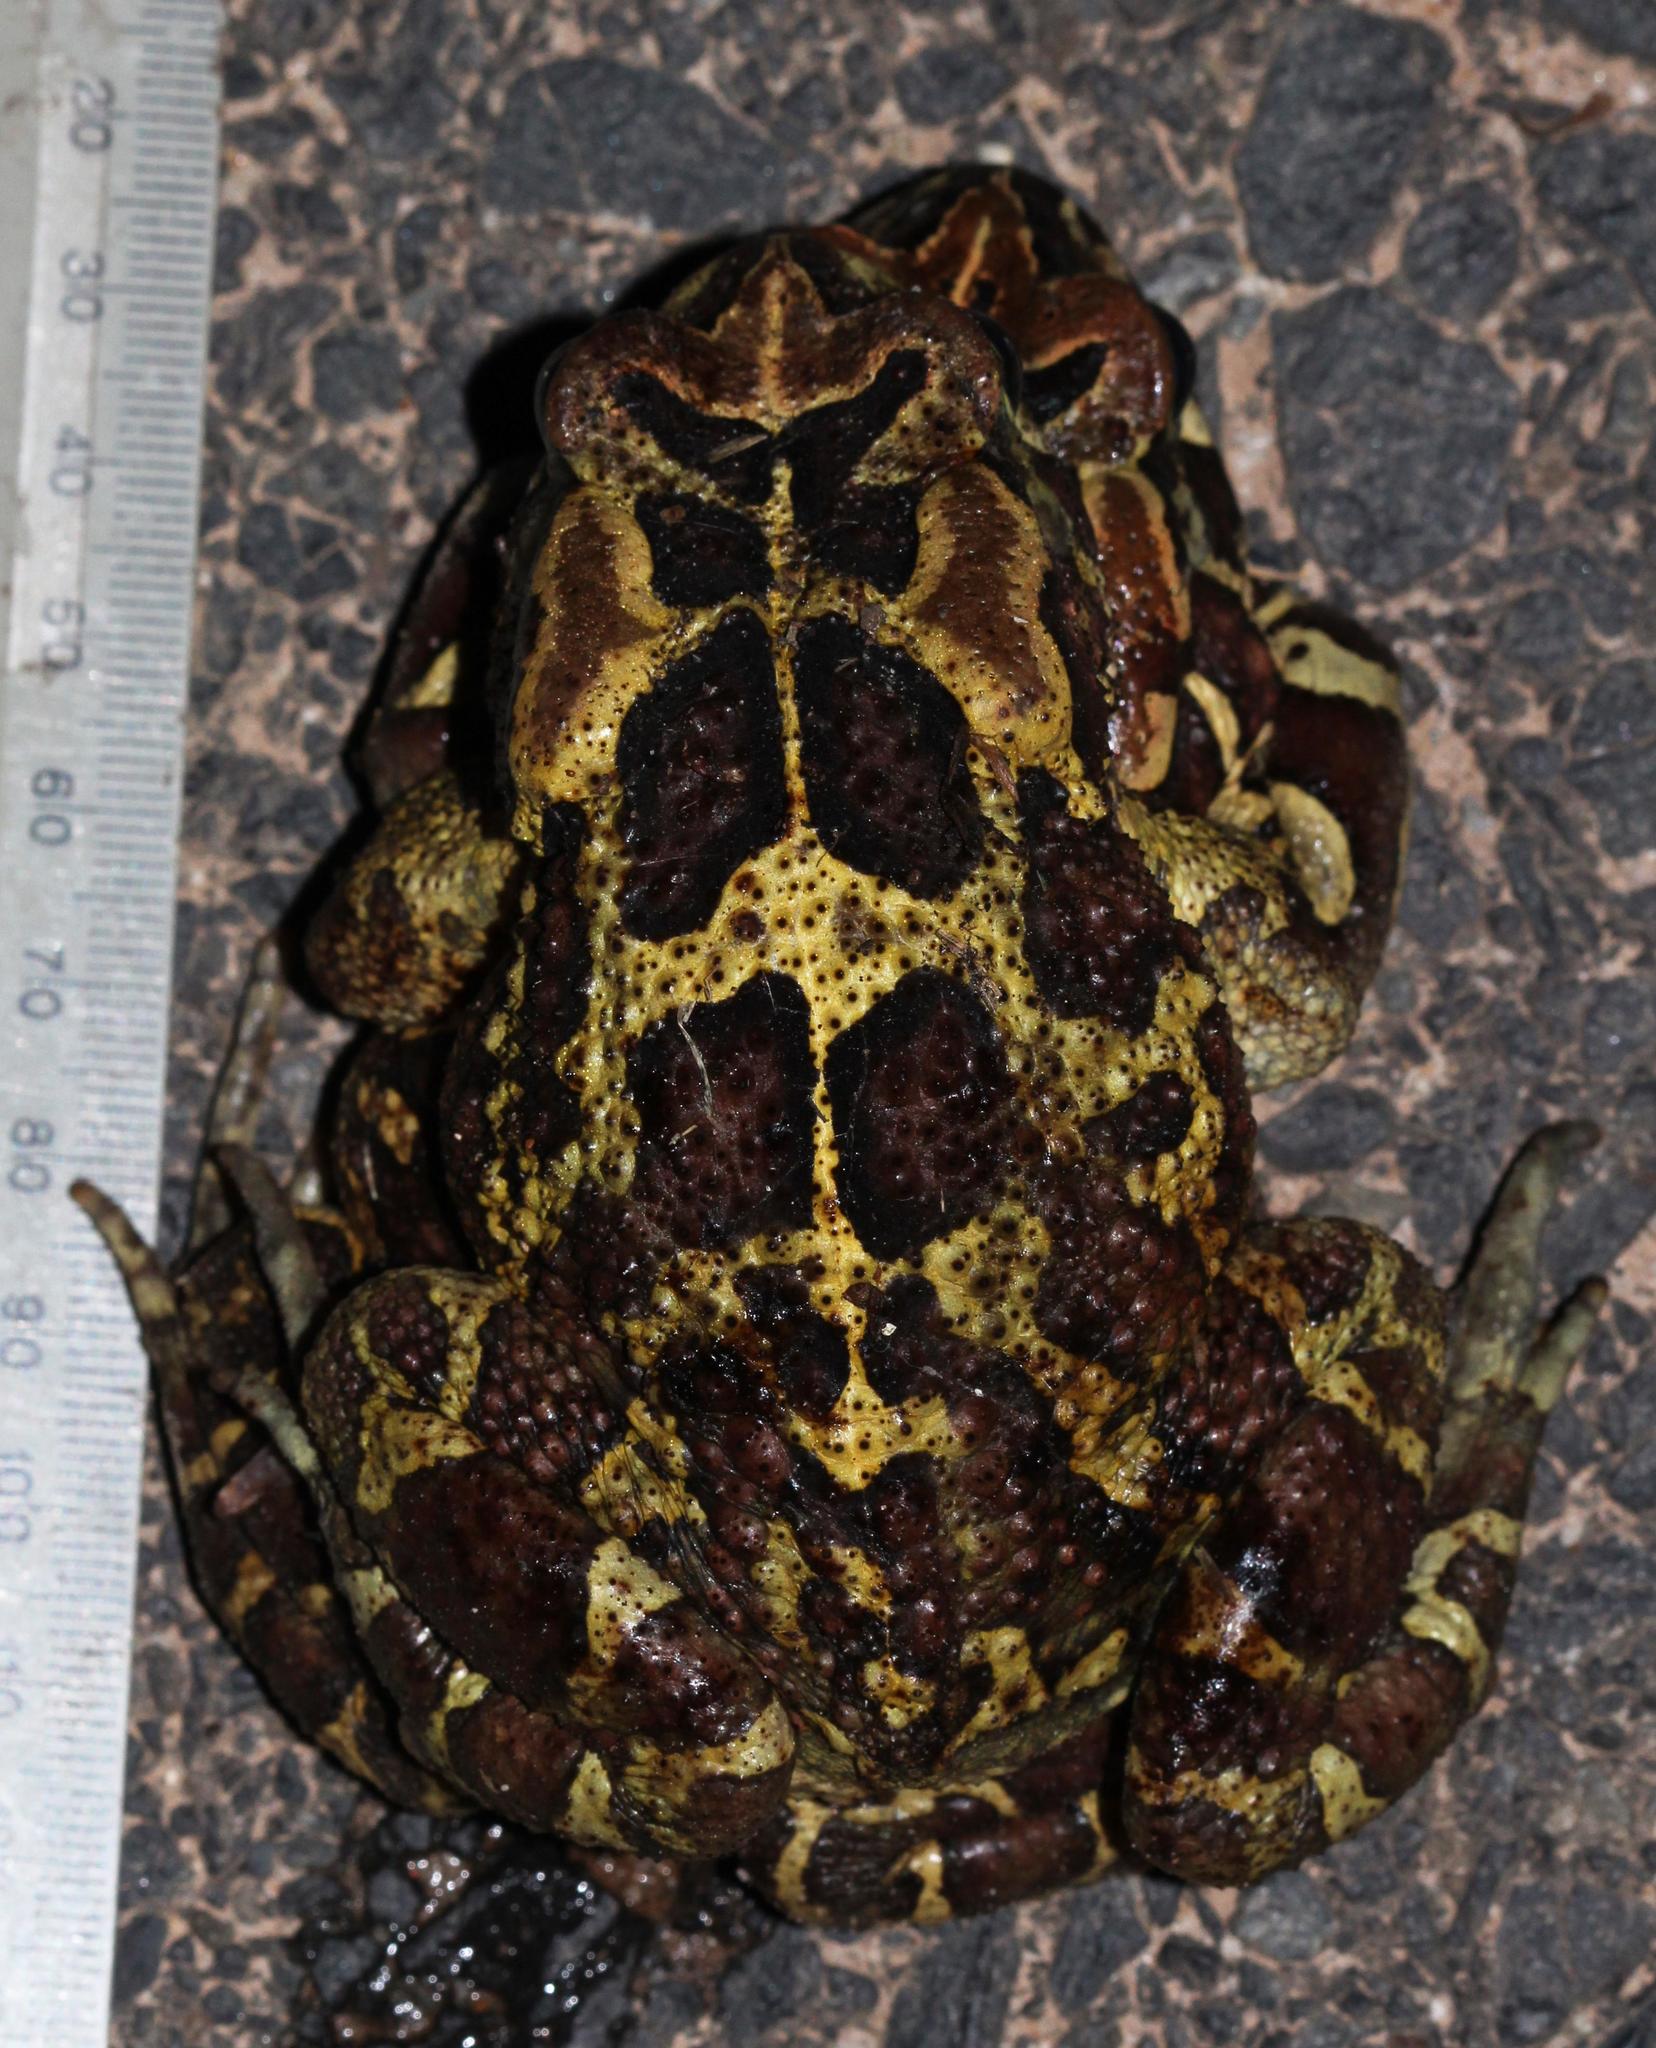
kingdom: Animalia
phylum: Chordata
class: Amphibia
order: Anura
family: Bufonidae
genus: Sclerophrys
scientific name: Sclerophrys pantherina
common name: Panther toad
